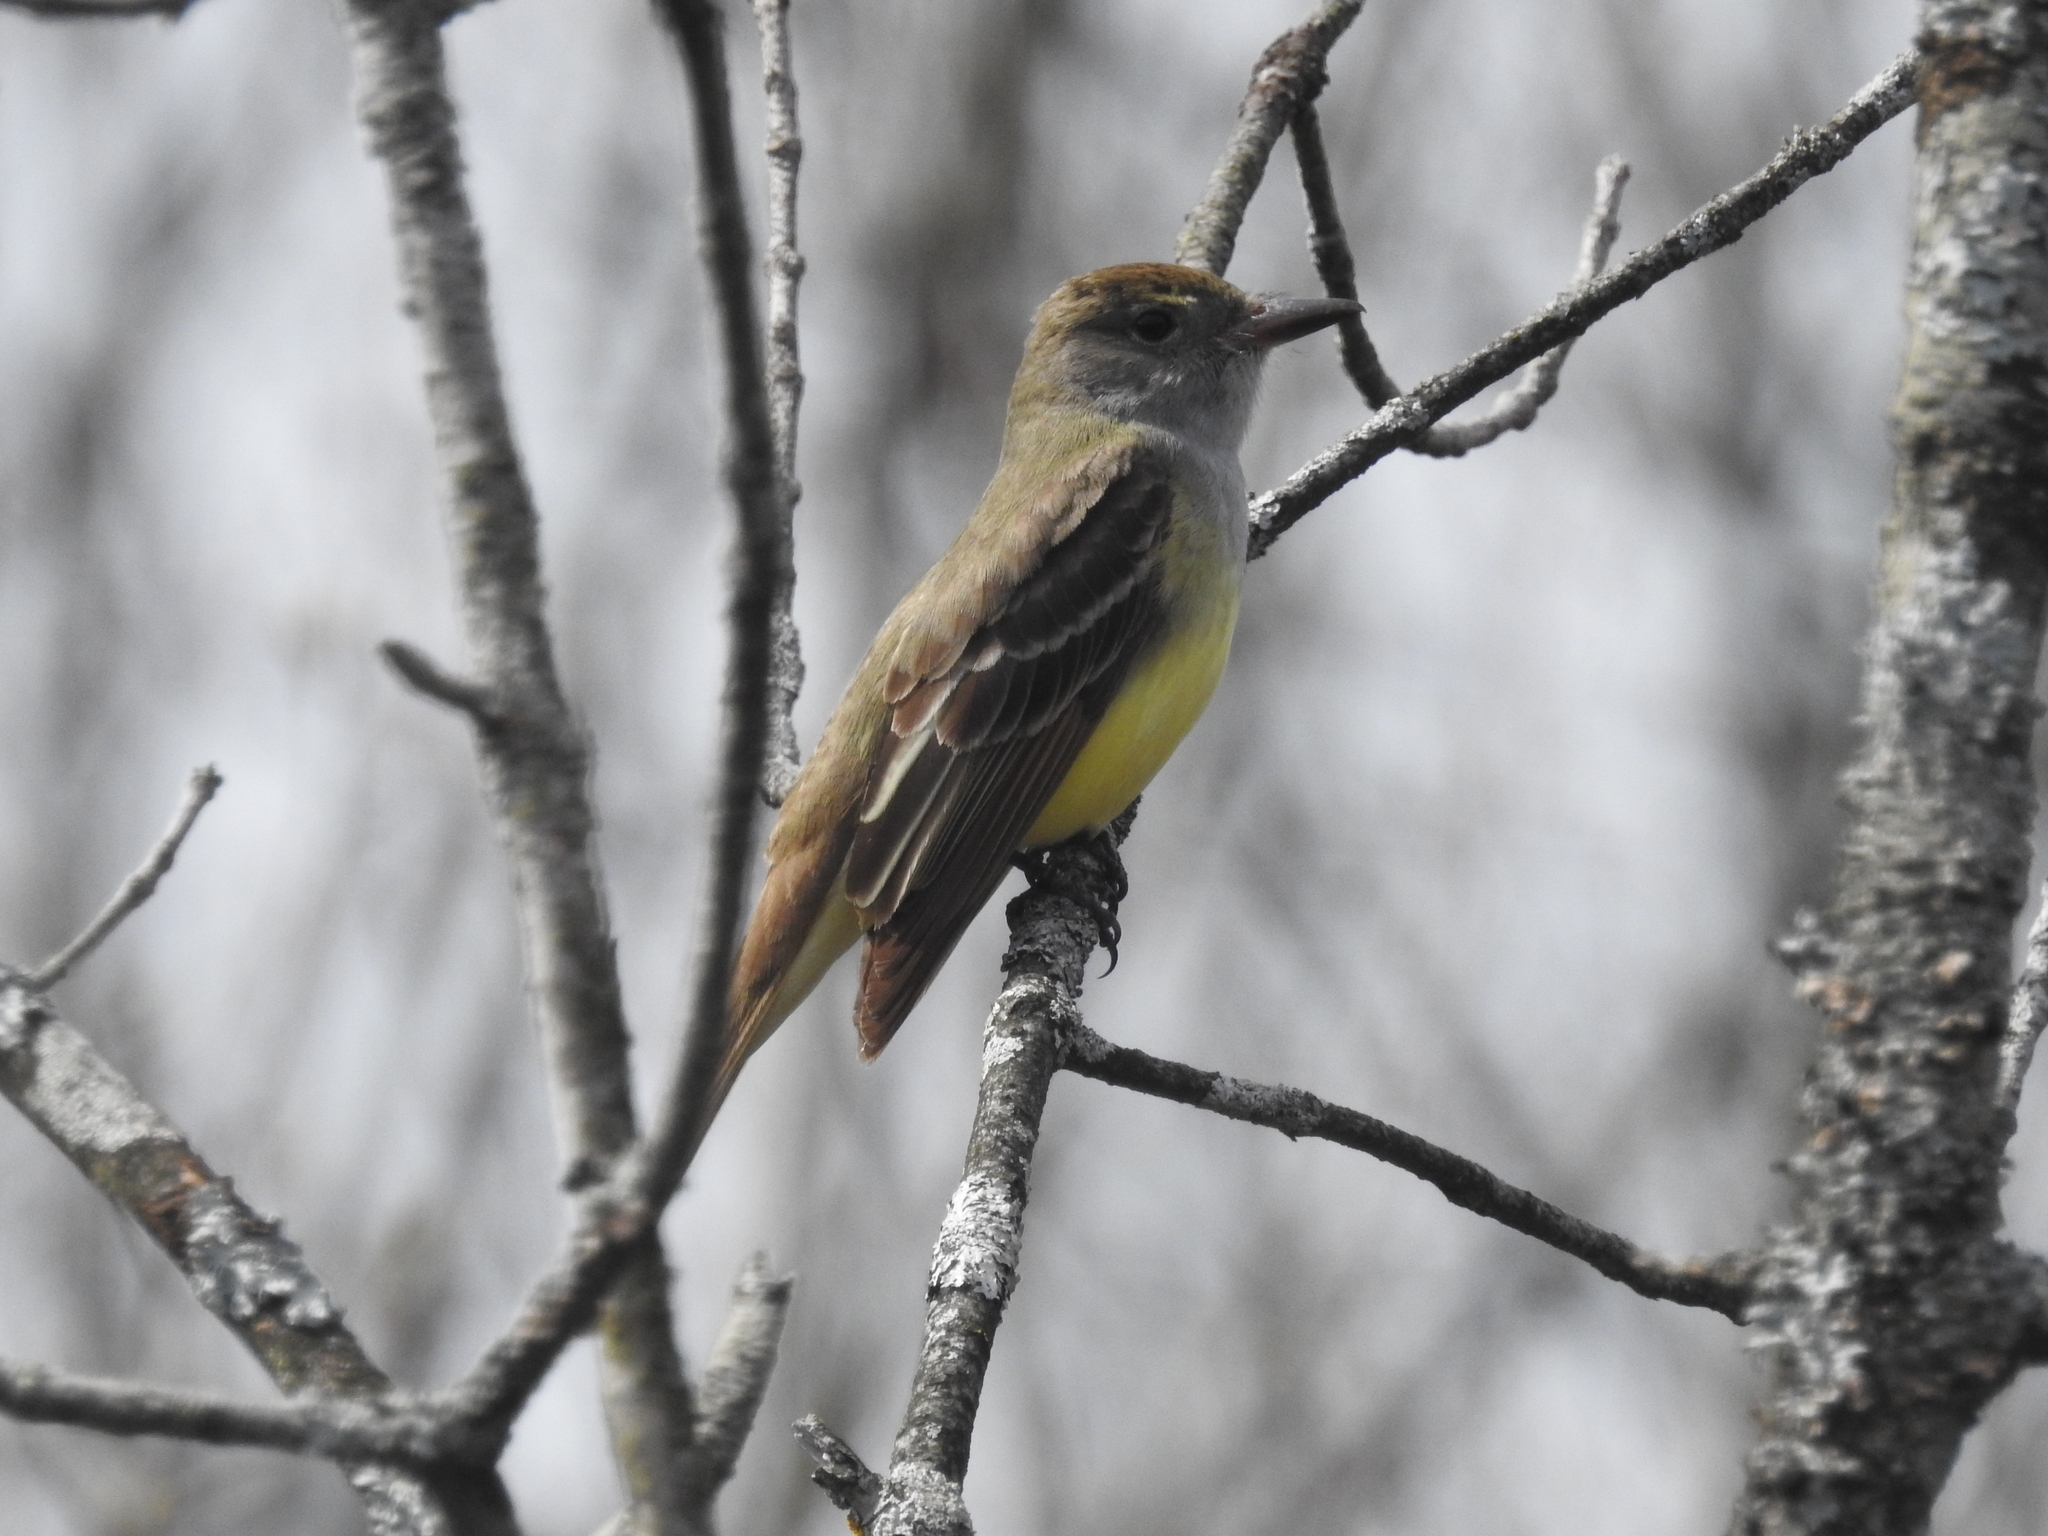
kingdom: Animalia
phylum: Chordata
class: Aves
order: Passeriformes
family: Tyrannidae
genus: Myiarchus
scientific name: Myiarchus crinitus
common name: Great crested flycatcher
